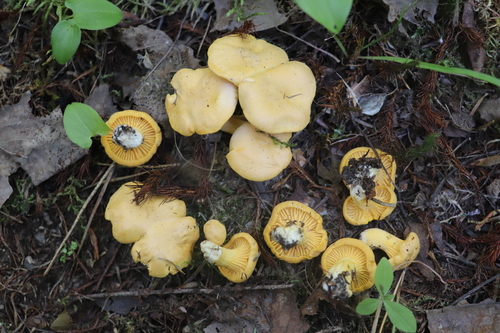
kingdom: Fungi
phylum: Basidiomycota
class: Agaricomycetes
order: Cantharellales
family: Hydnaceae
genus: Cantharellus
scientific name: Cantharellus cibarius
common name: Chanterelle
